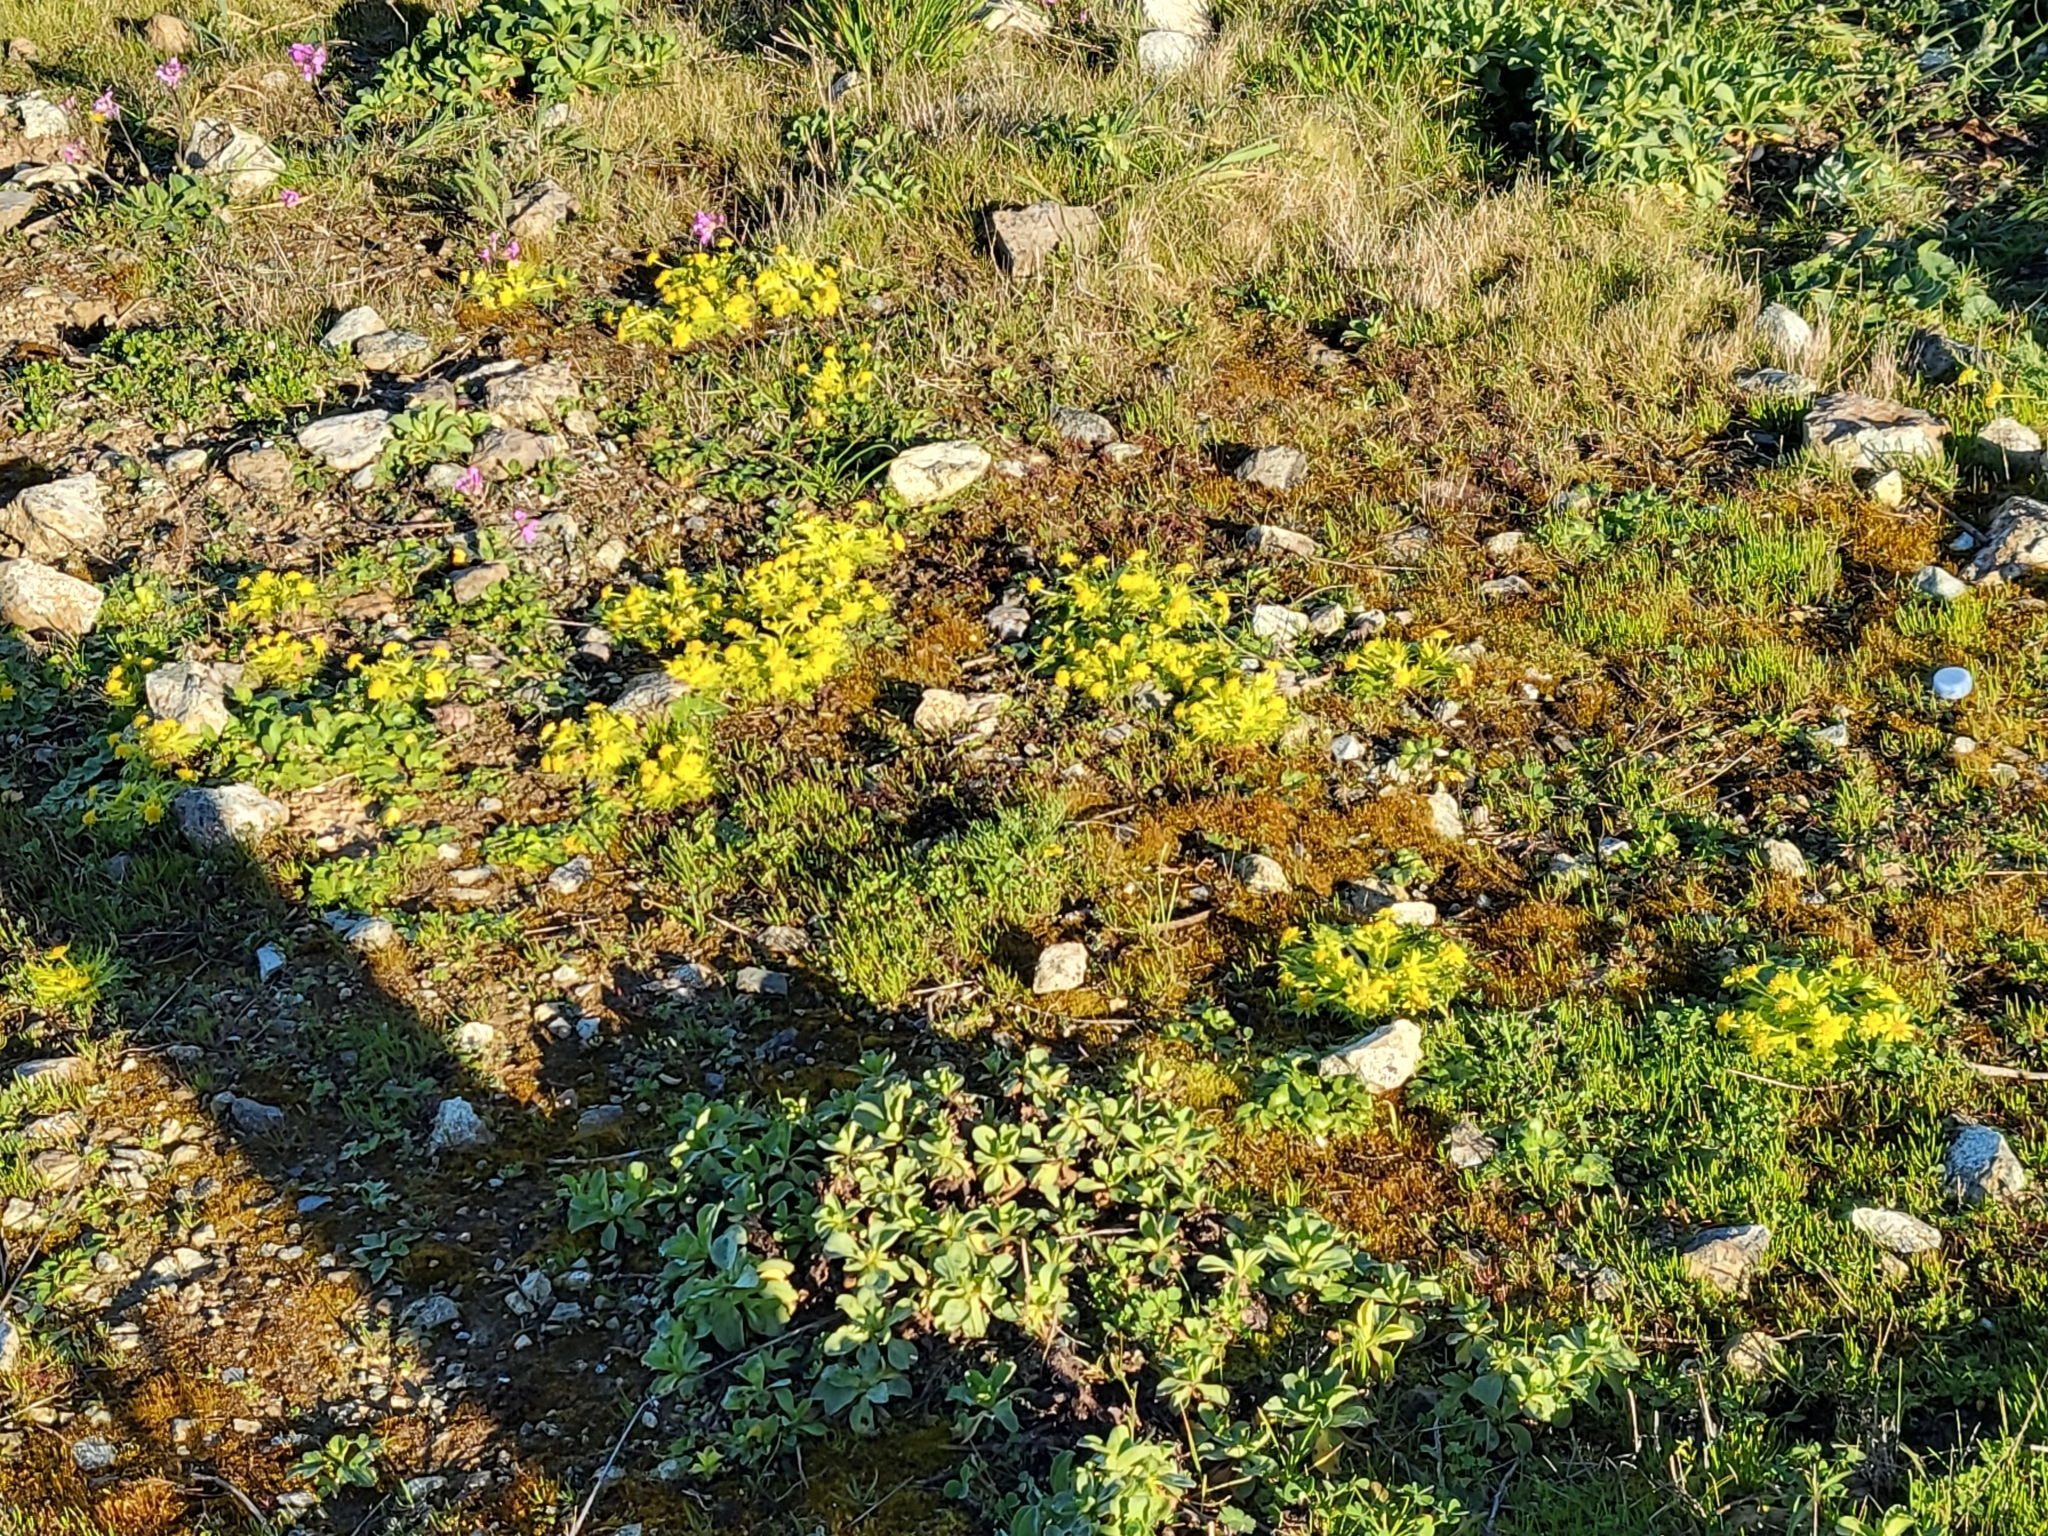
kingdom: Plantae
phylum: Tracheophyta
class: Magnoliopsida
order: Apiales
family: Apiaceae
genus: Sanicula
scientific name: Sanicula arctopoides
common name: Footsteps-of-spring
